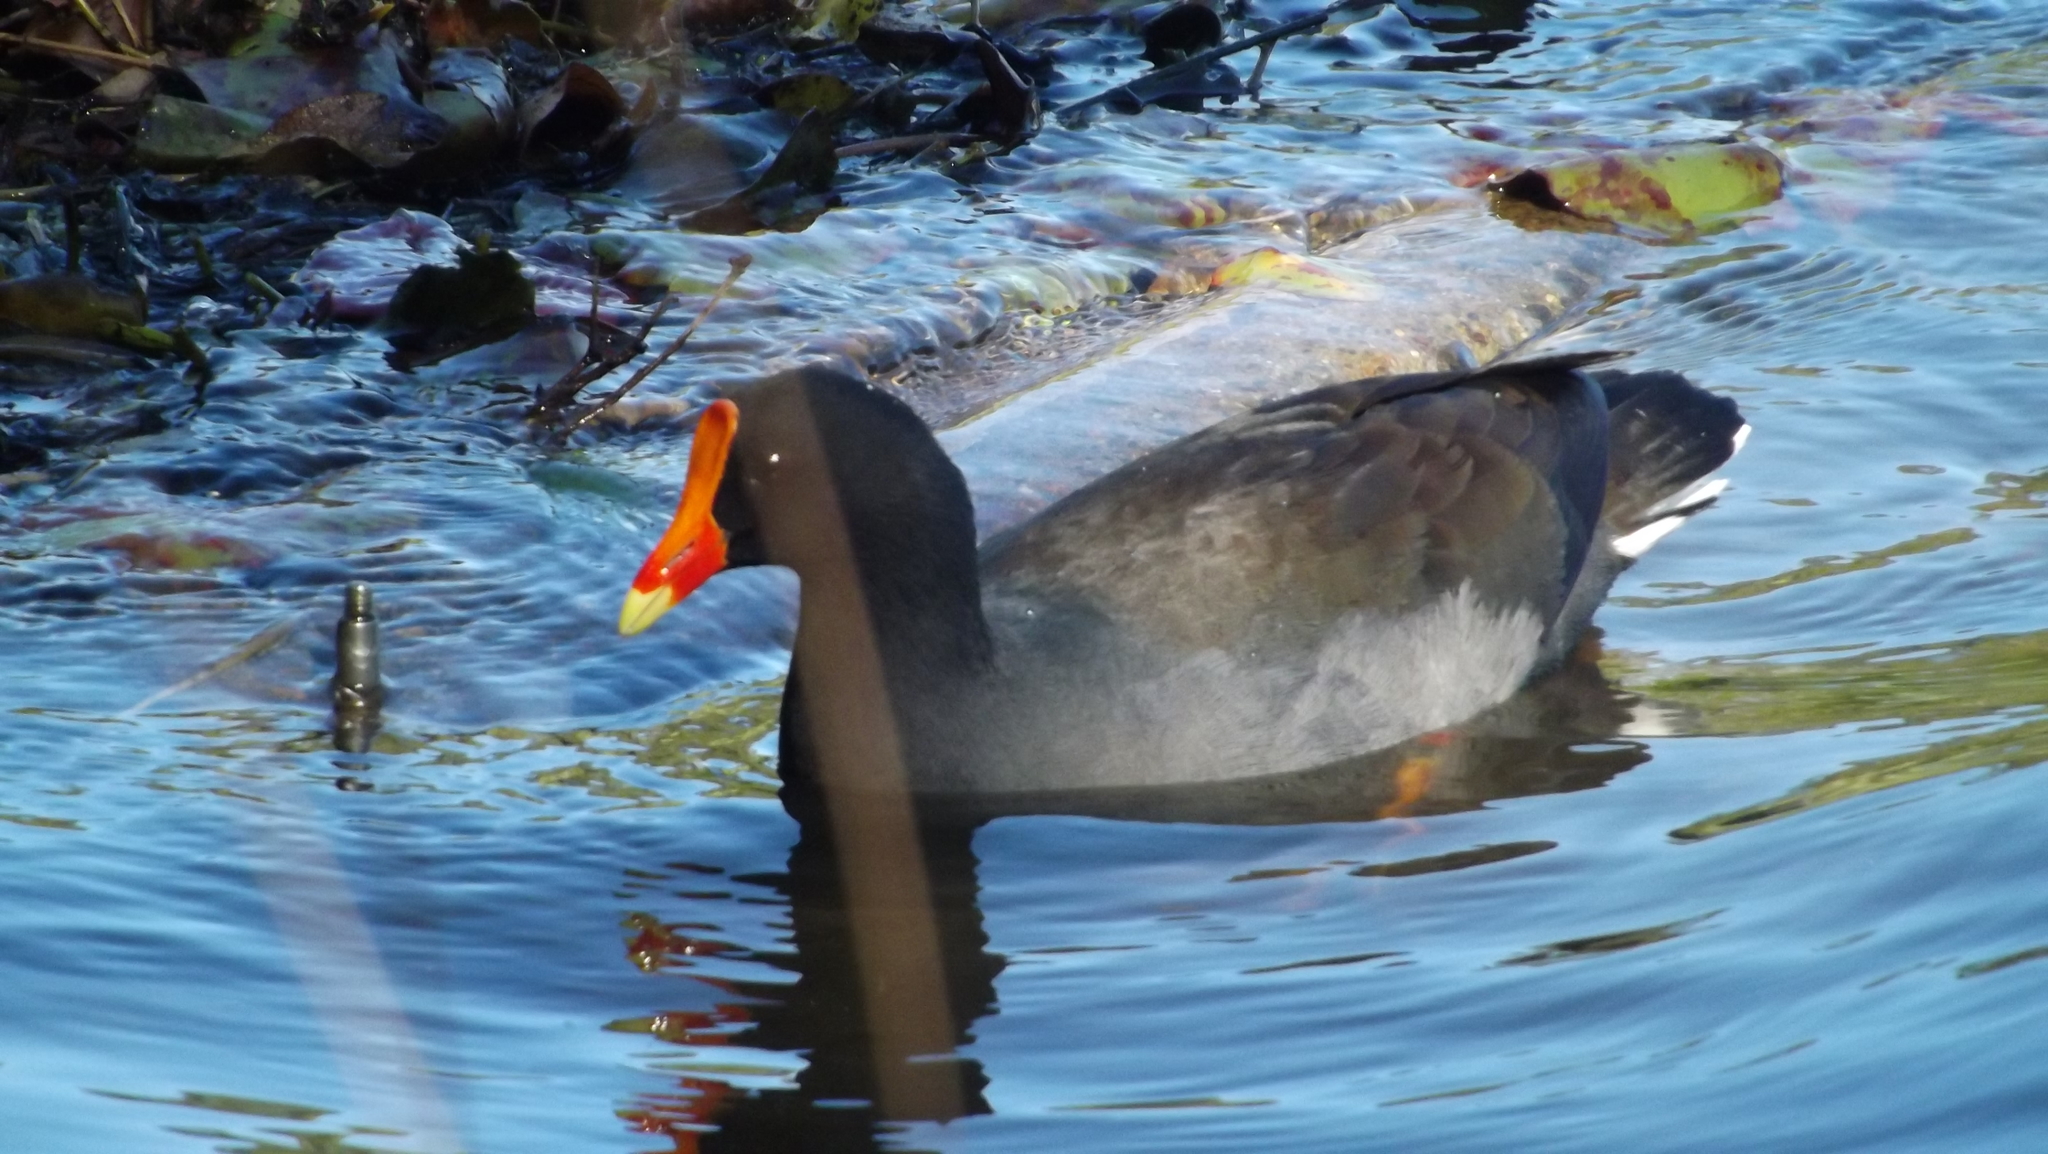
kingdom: Animalia
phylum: Chordata
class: Aves
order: Gruiformes
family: Rallidae
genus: Gallinula
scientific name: Gallinula tenebrosa
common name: Dusky moorhen
